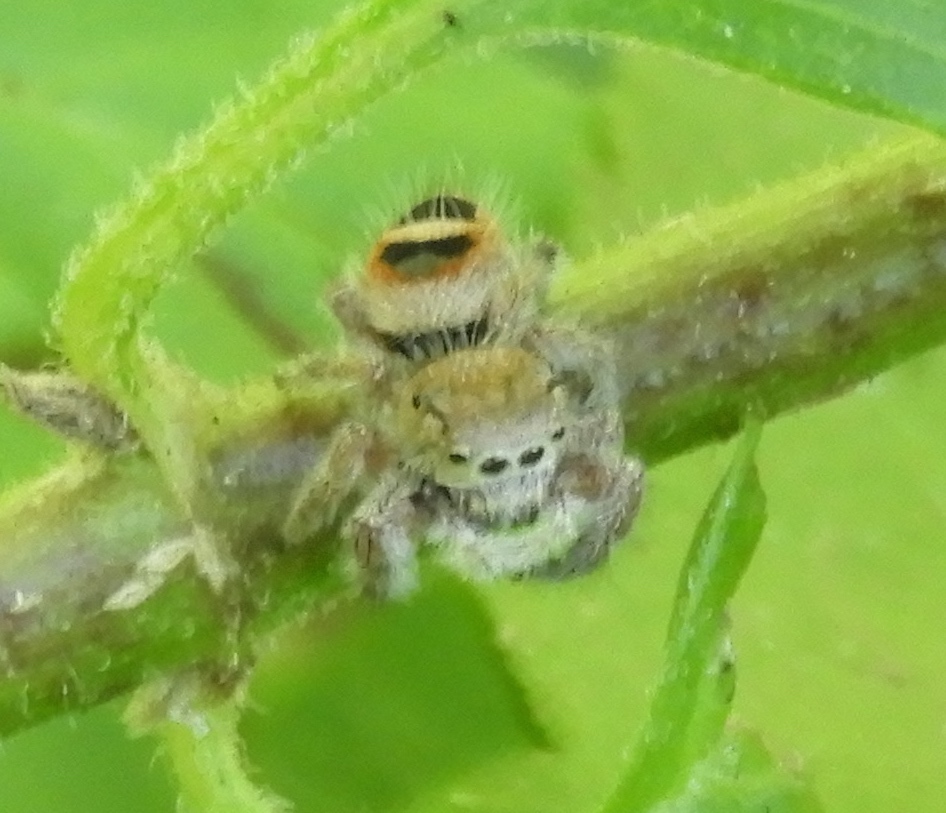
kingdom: Animalia
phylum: Arthropoda
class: Arachnida
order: Araneae
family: Salticidae
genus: Phidippus
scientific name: Phidippus pacosauritus
